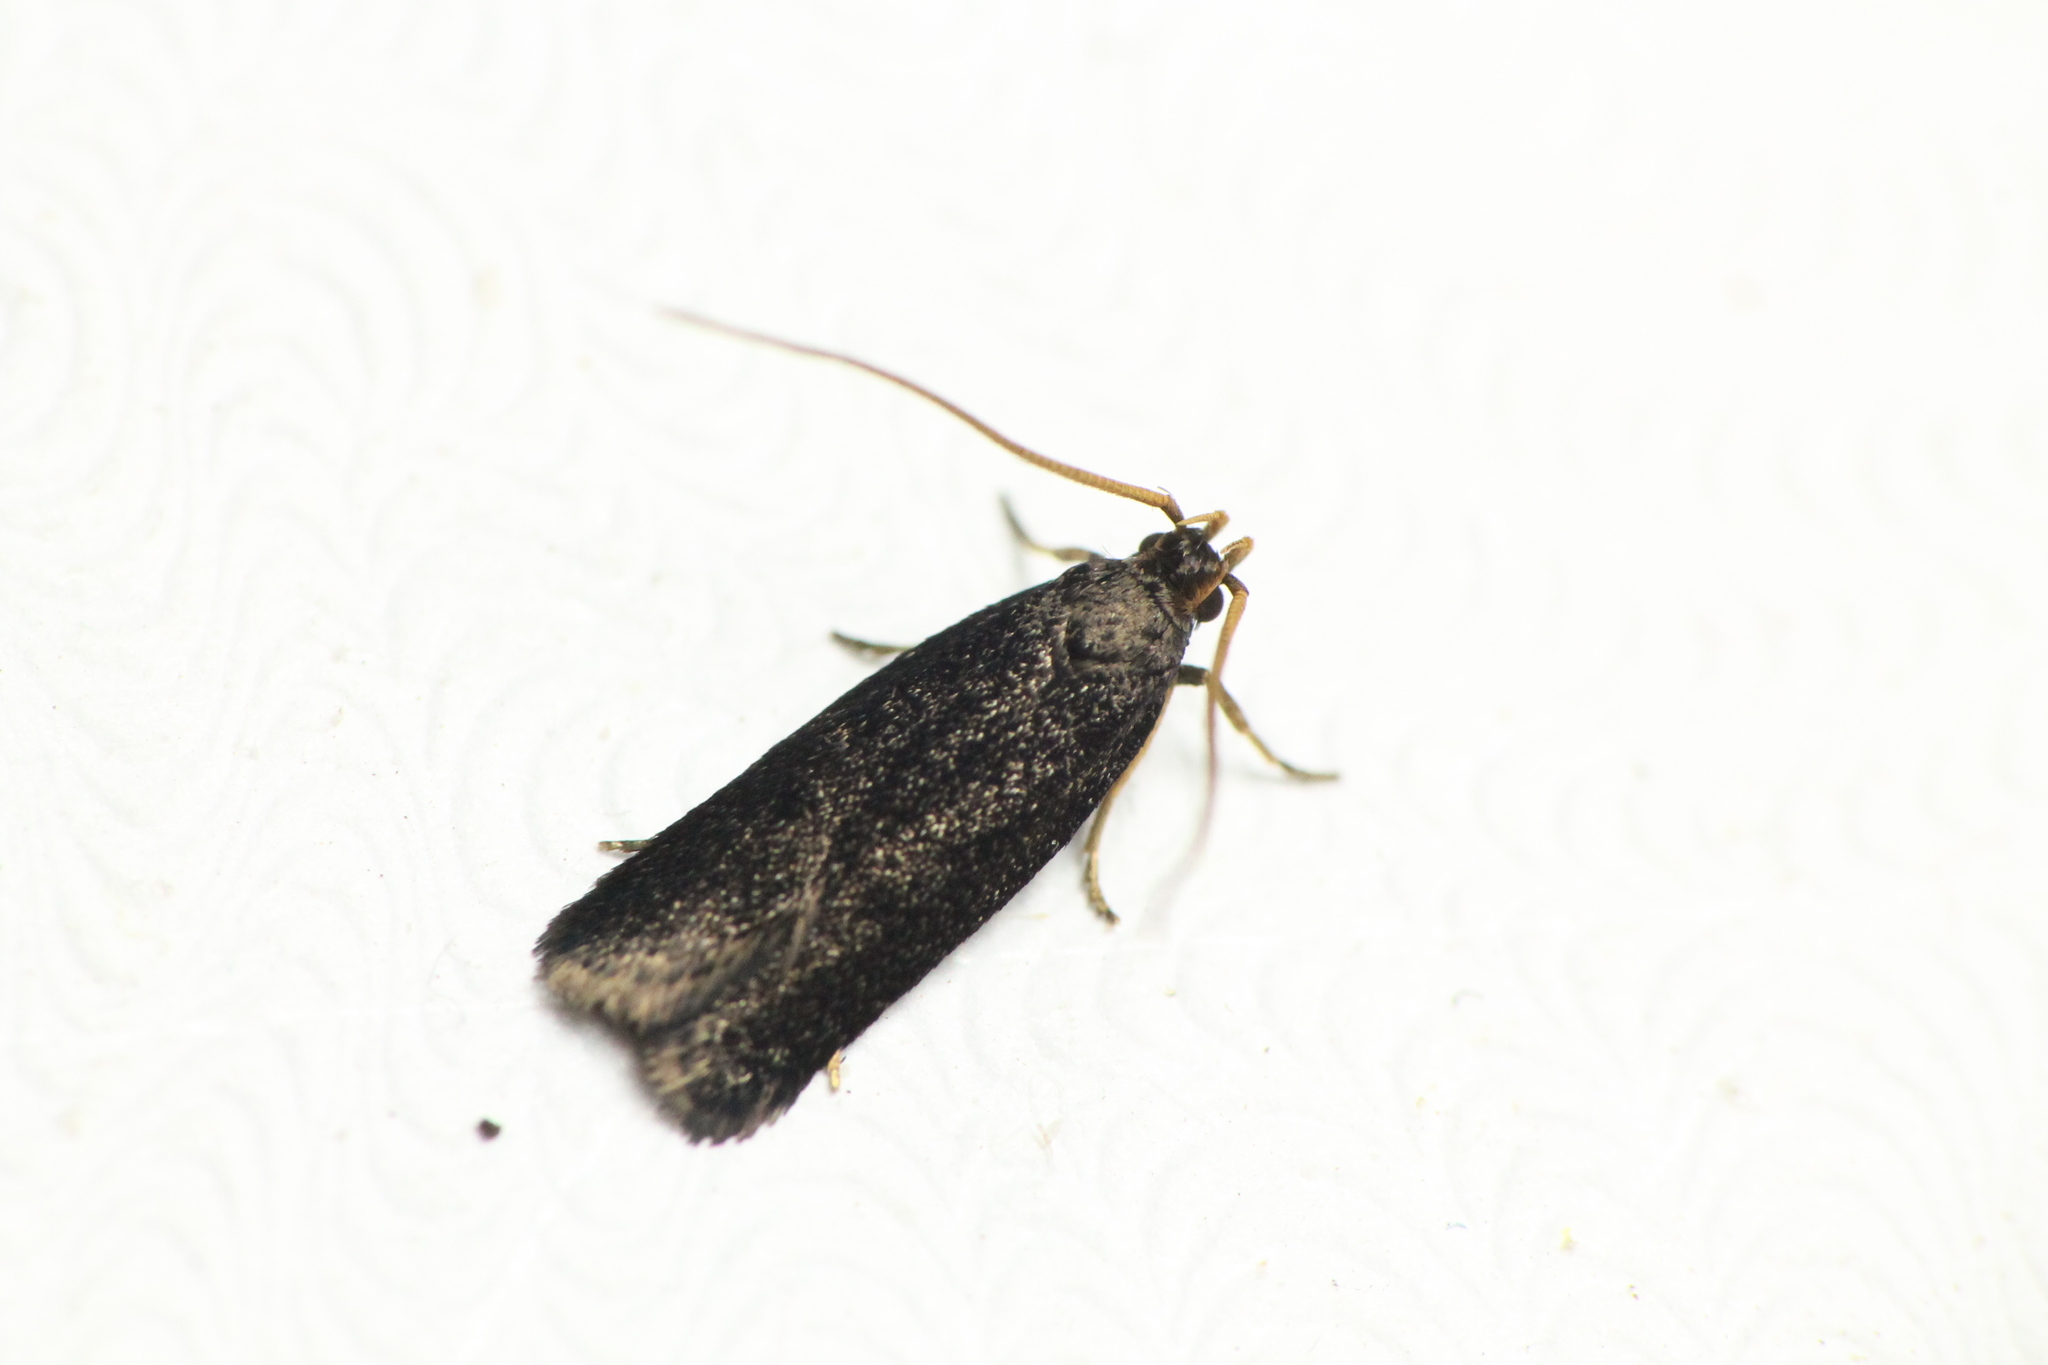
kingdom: Animalia
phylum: Arthropoda
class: Insecta
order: Lepidoptera
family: Lecithoceridae
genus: Lecithocera
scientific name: Lecithocera micromela
